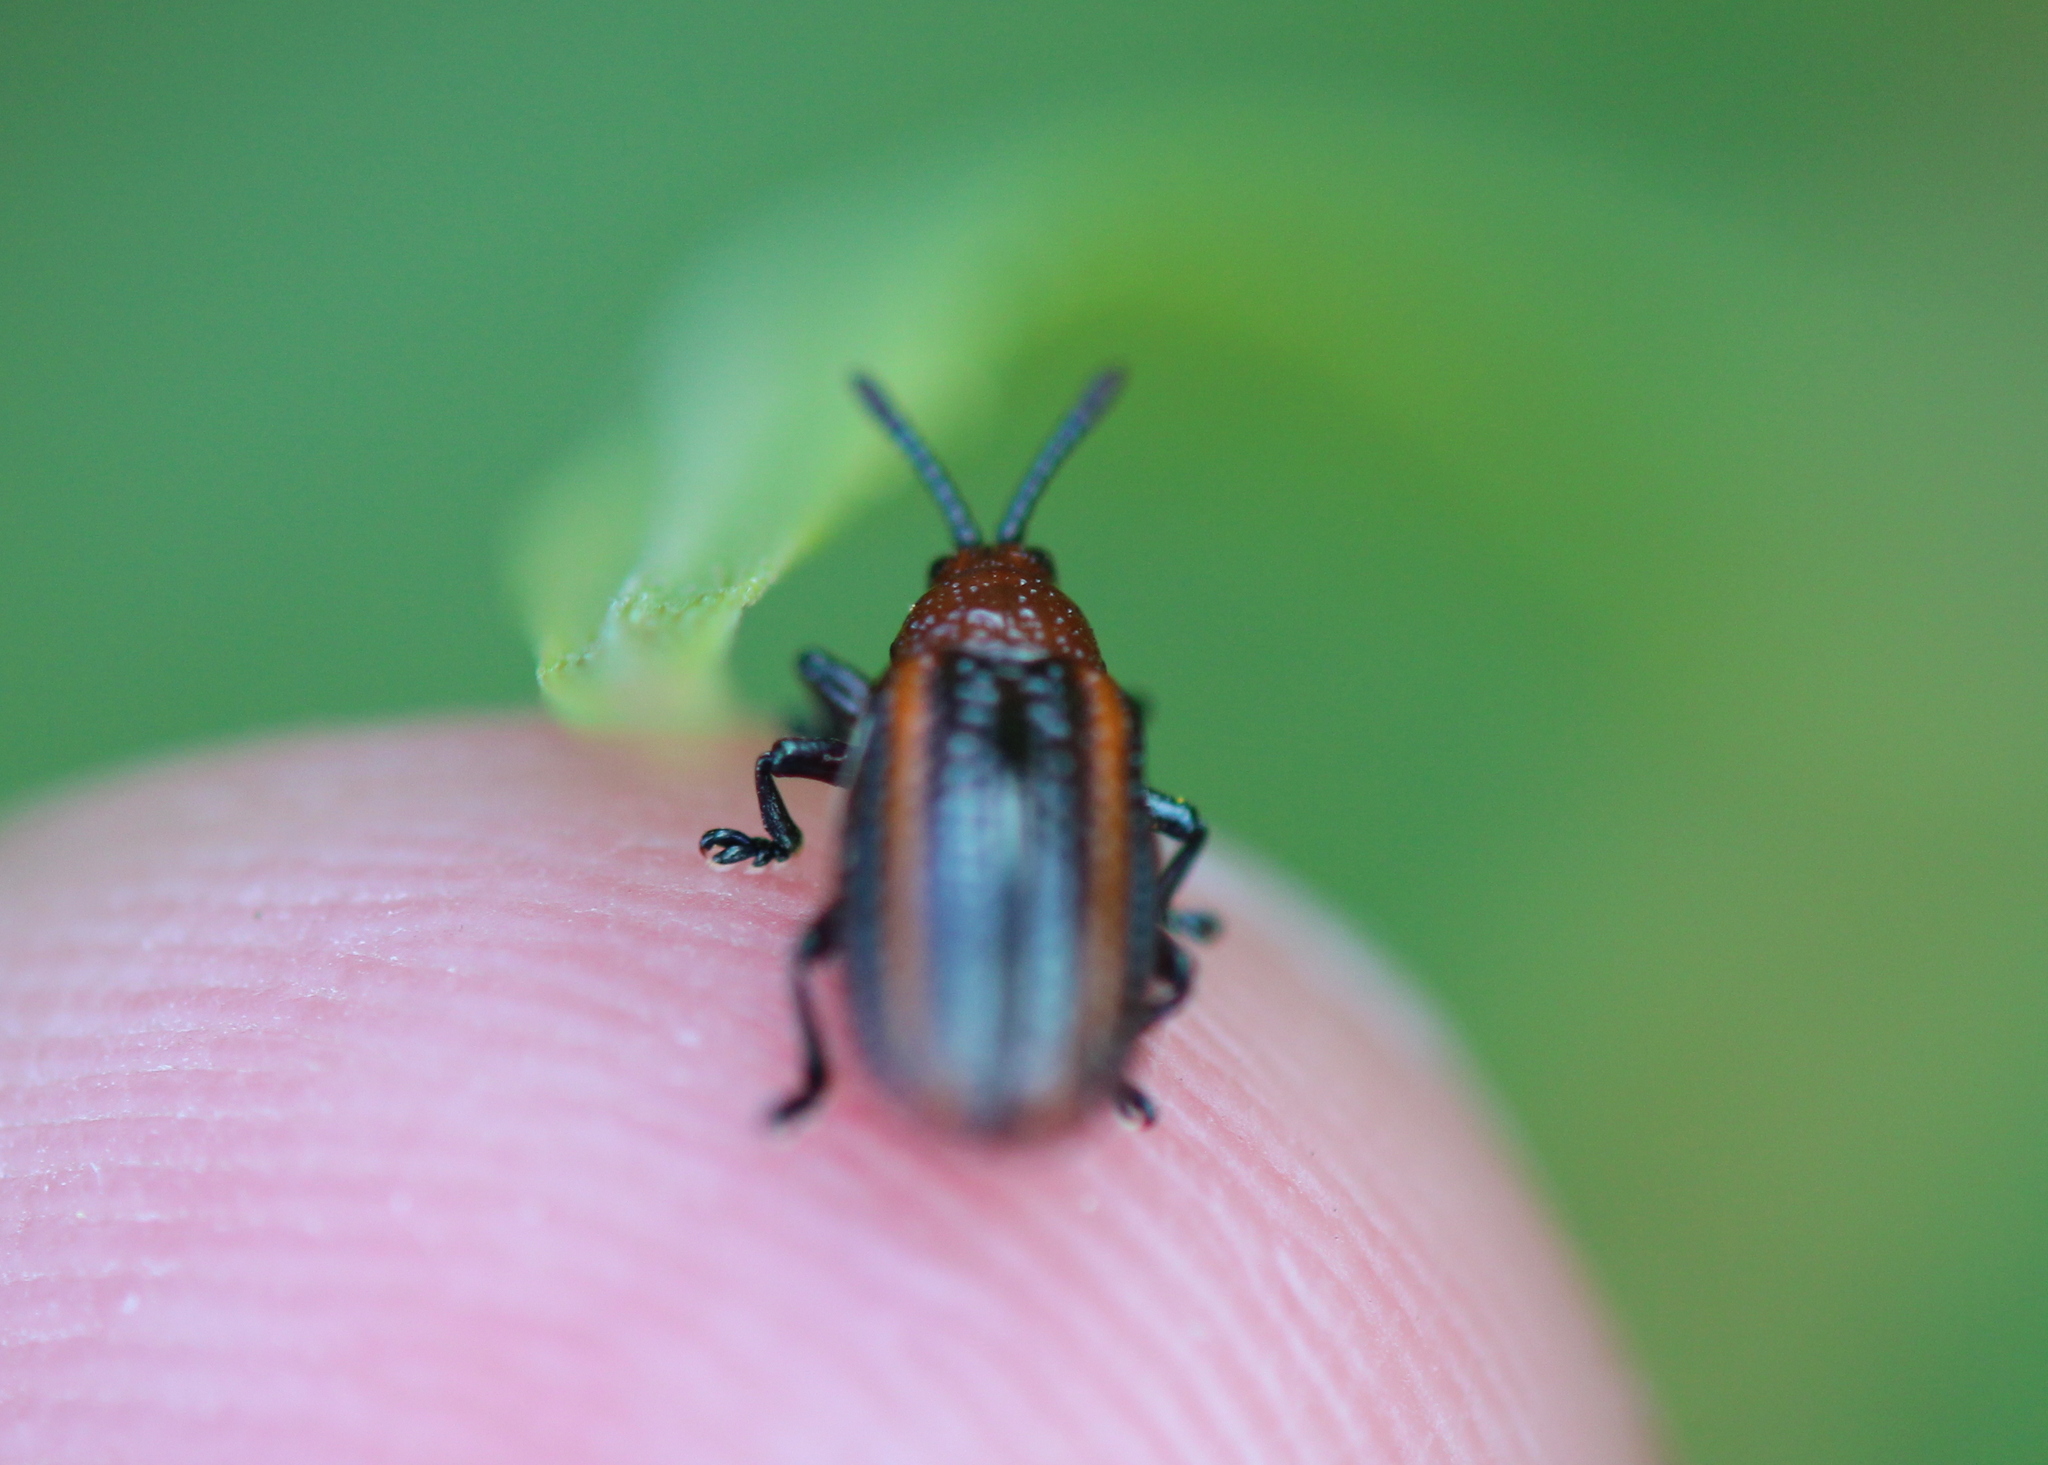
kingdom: Animalia
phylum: Arthropoda
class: Insecta
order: Coleoptera
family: Chrysomelidae
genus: Microrhopala
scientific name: Microrhopala vittata
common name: Goldenrod leaf miner beetle
